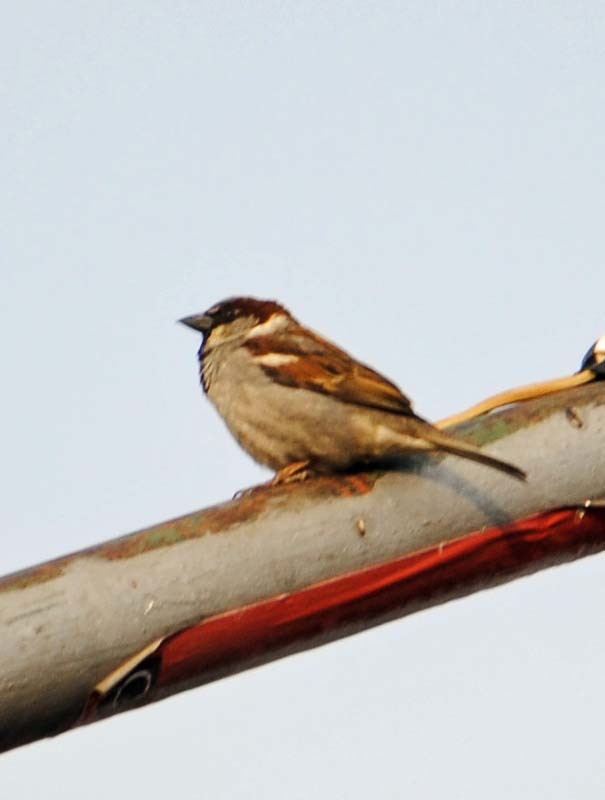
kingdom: Animalia
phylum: Chordata
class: Aves
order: Passeriformes
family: Passeridae
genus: Passer
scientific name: Passer domesticus
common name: House sparrow
